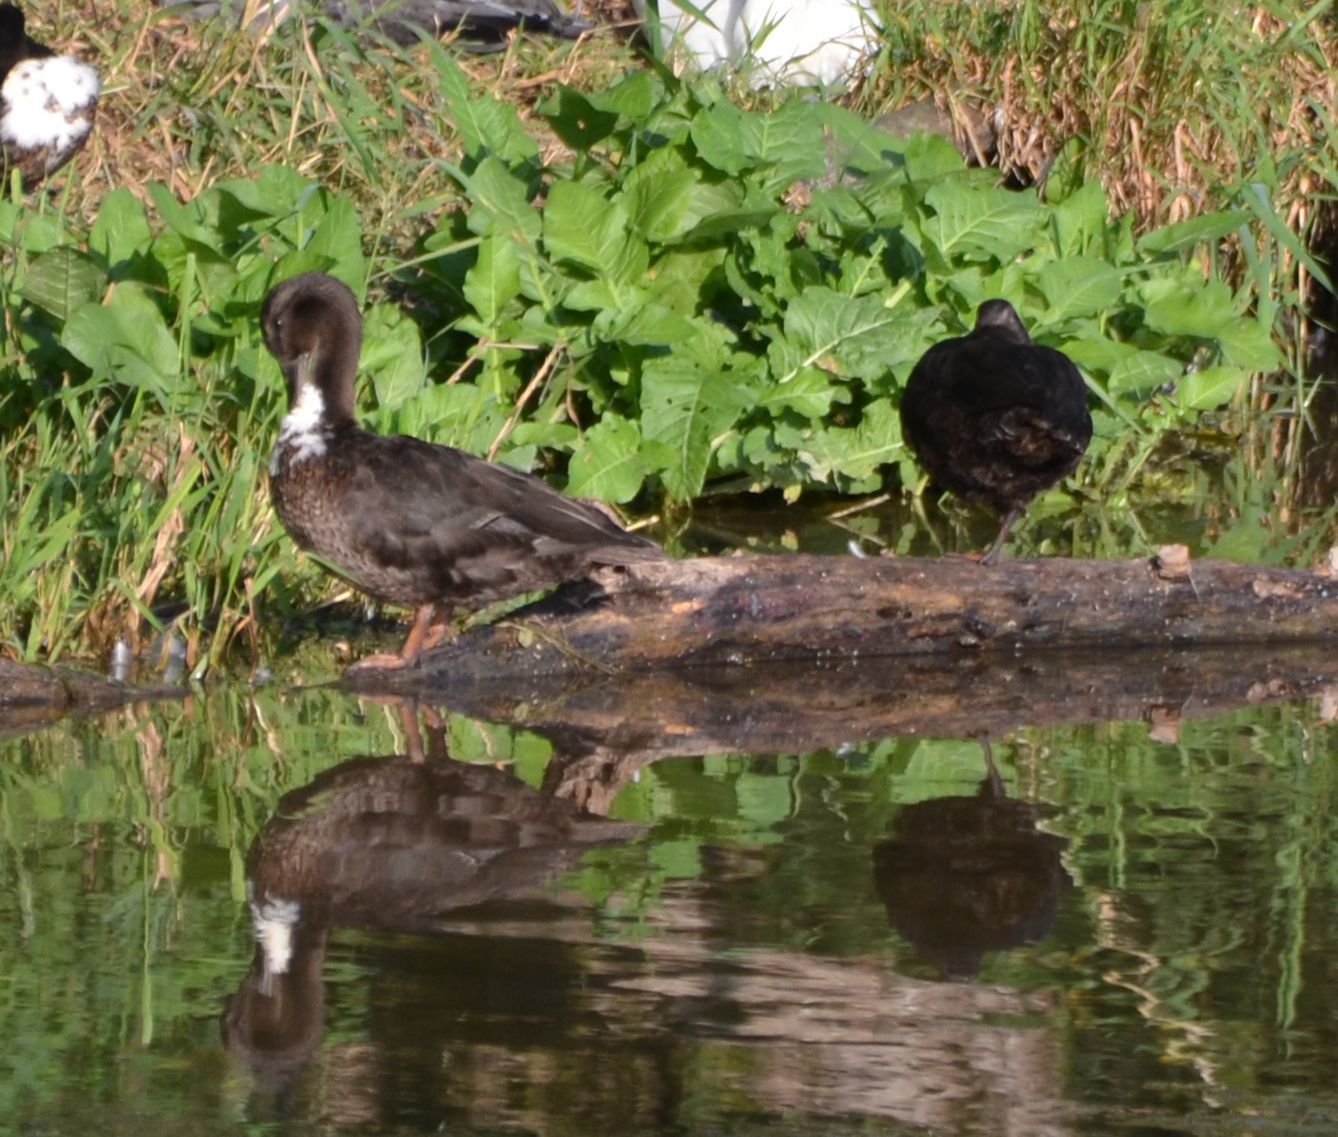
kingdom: Animalia
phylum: Chordata
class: Aves
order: Anseriformes
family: Anatidae
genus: Anas
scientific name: Anas platyrhynchos
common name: Mallard
